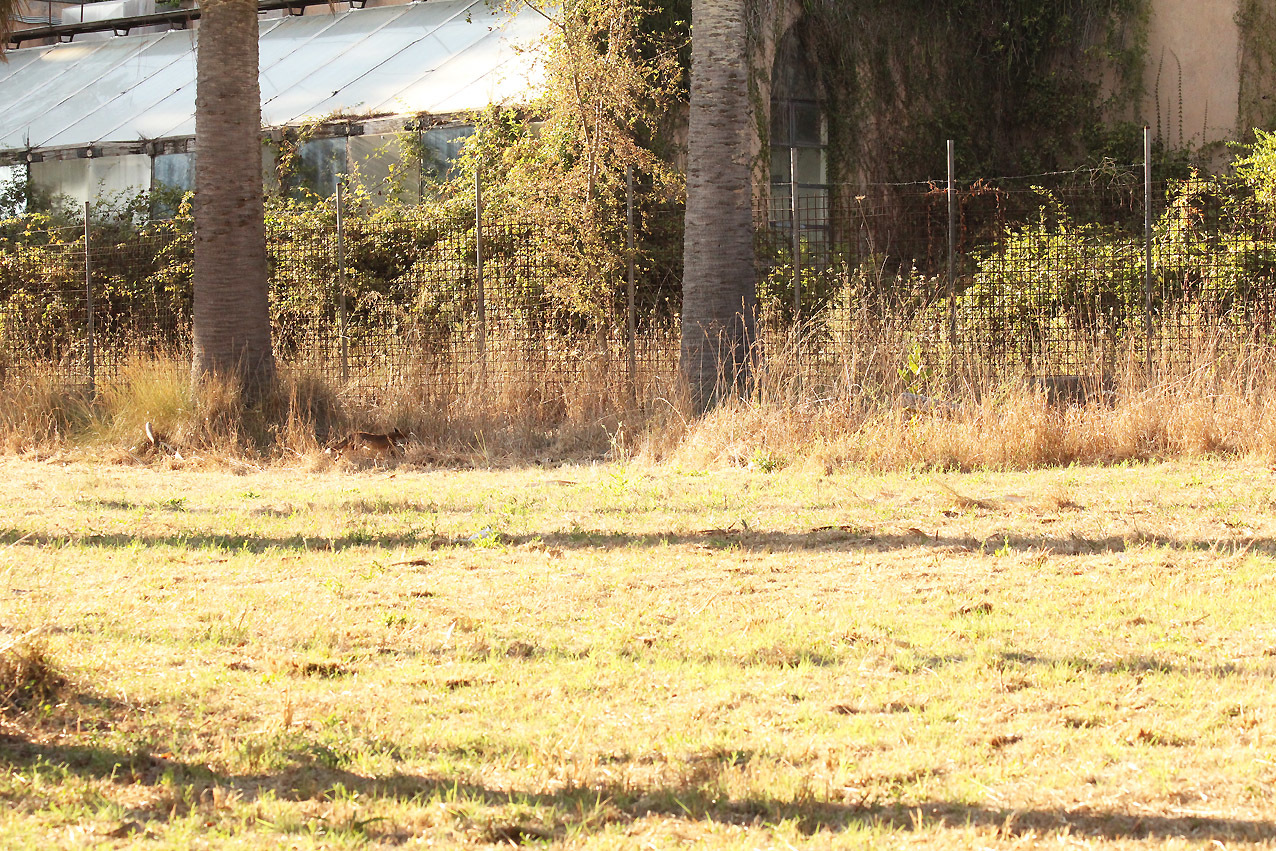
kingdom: Animalia
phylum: Chordata
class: Mammalia
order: Carnivora
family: Canidae
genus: Vulpes
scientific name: Vulpes vulpes
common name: Red fox
